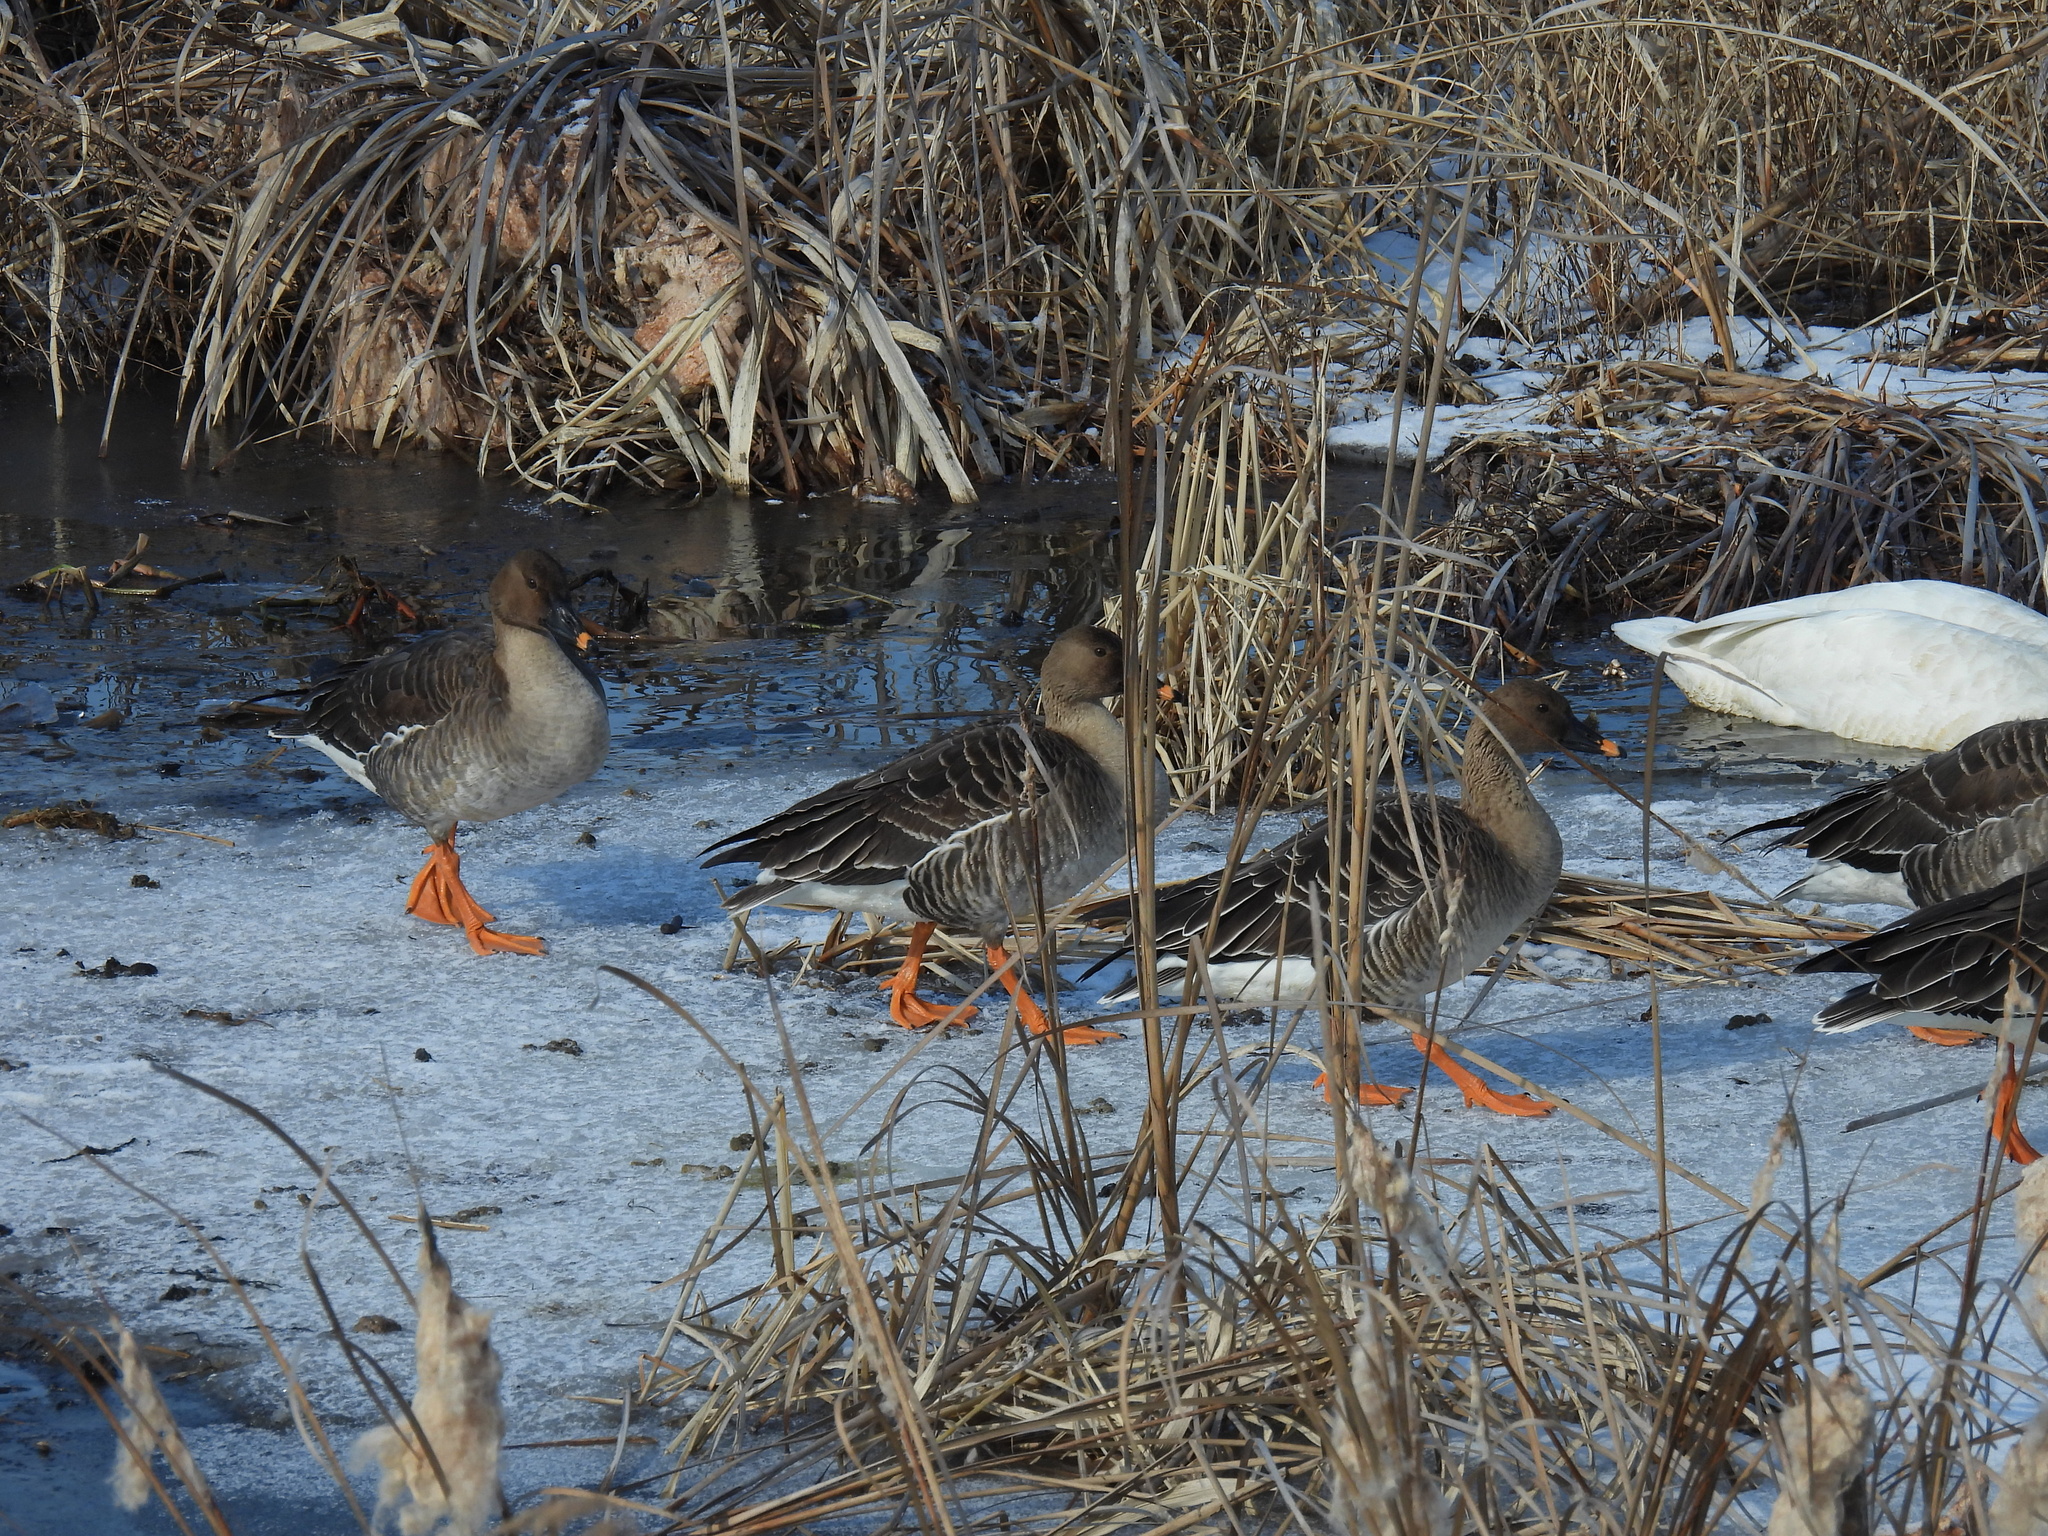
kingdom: Animalia
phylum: Chordata
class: Aves
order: Anseriformes
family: Anatidae
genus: Anser
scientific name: Anser serrirostris
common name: Tundra bean goose
